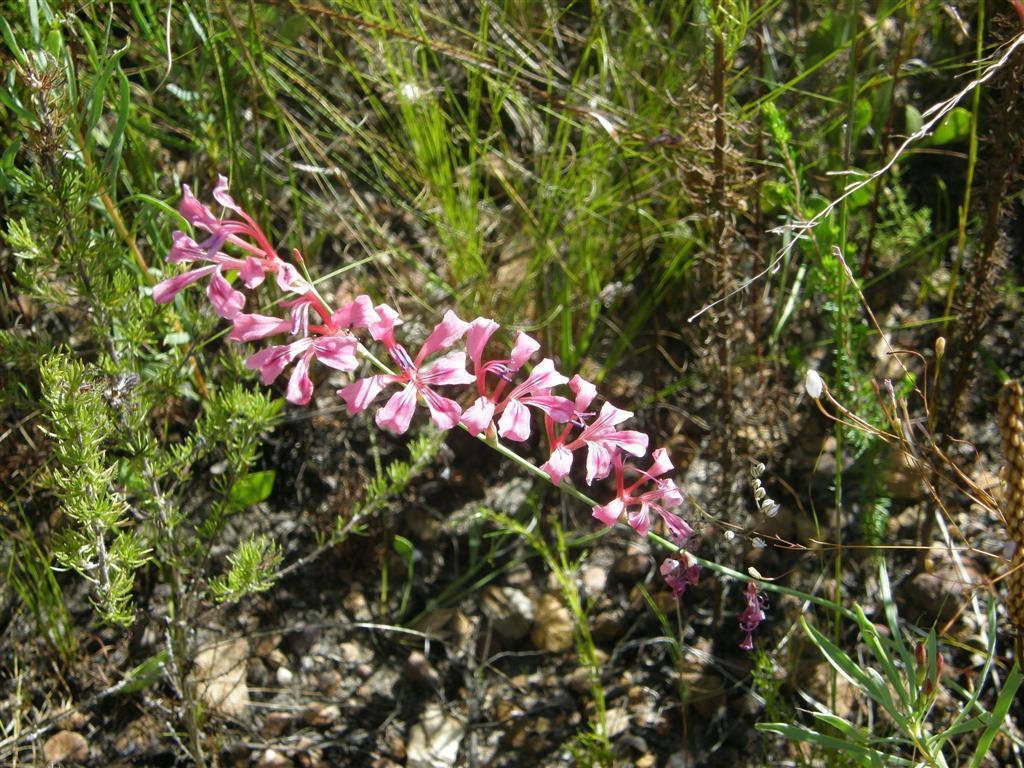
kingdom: Plantae
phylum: Tracheophyta
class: Liliopsida
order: Asparagales
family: Iridaceae
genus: Tritoniopsis
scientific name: Tritoniopsis ramosa
